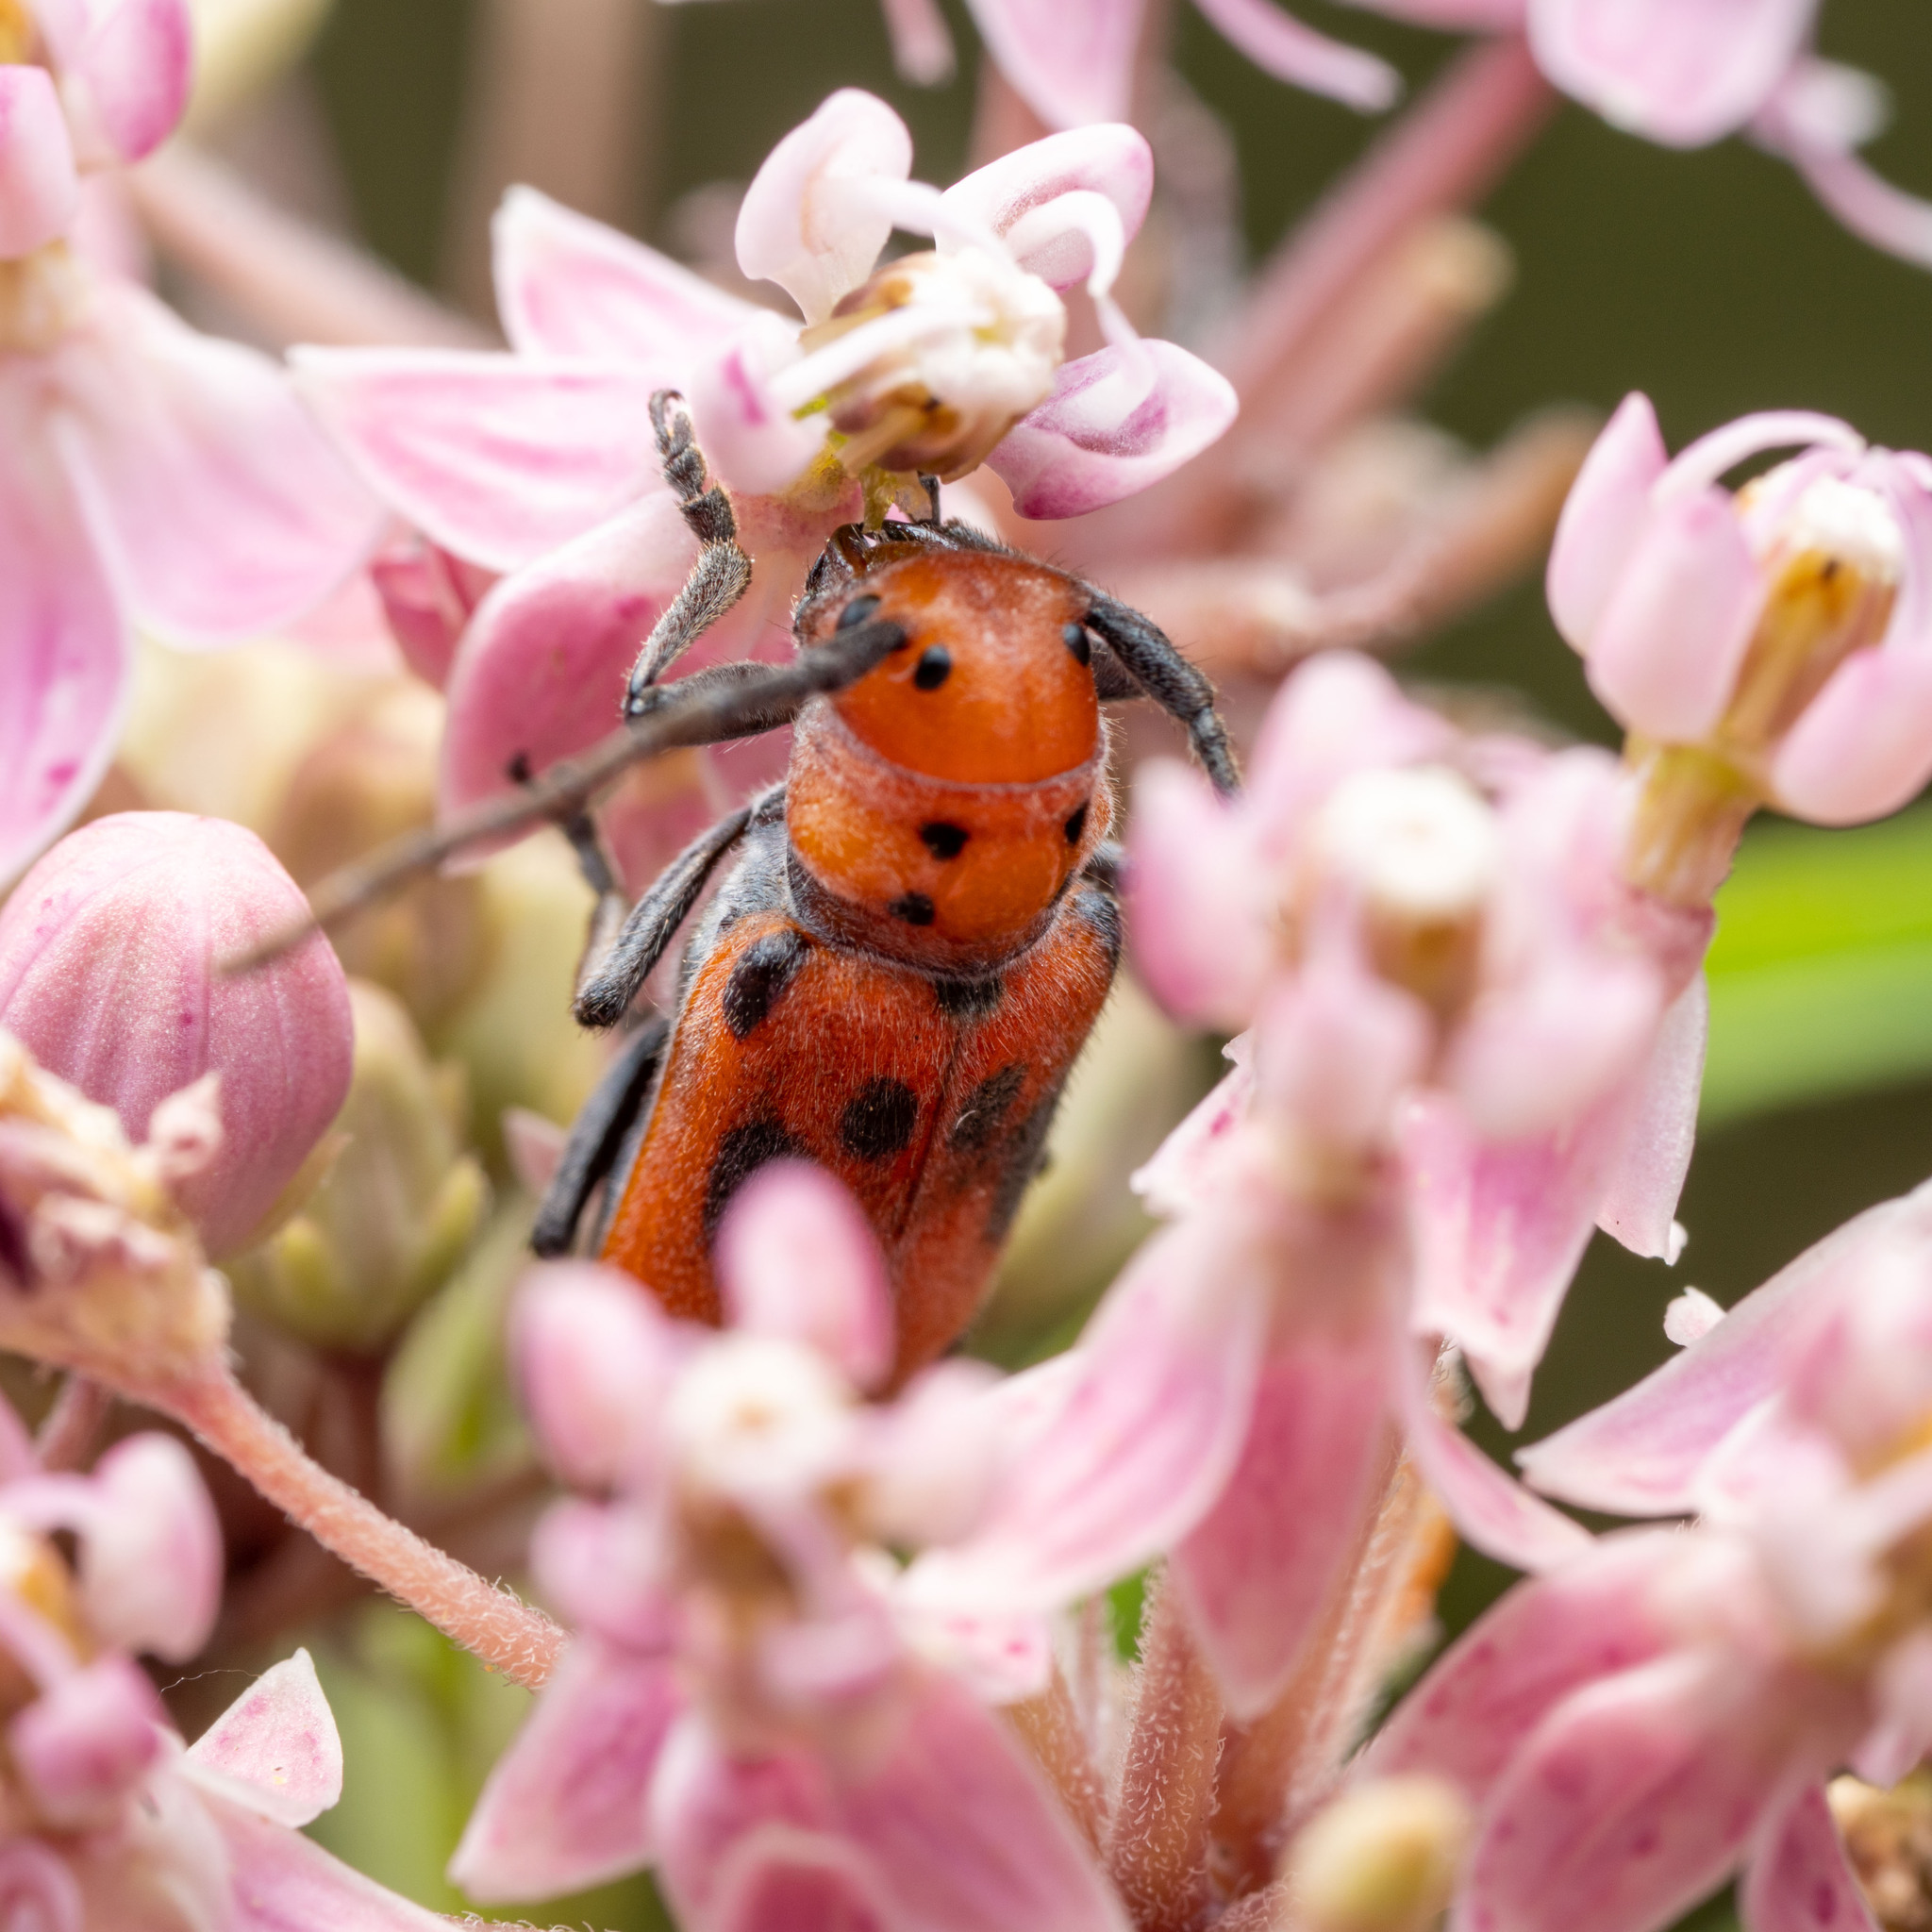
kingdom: Animalia
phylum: Arthropoda
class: Insecta
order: Coleoptera
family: Cerambycidae
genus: Tetraopes
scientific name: Tetraopes tetrophthalmus
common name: Red milkweed beetle
